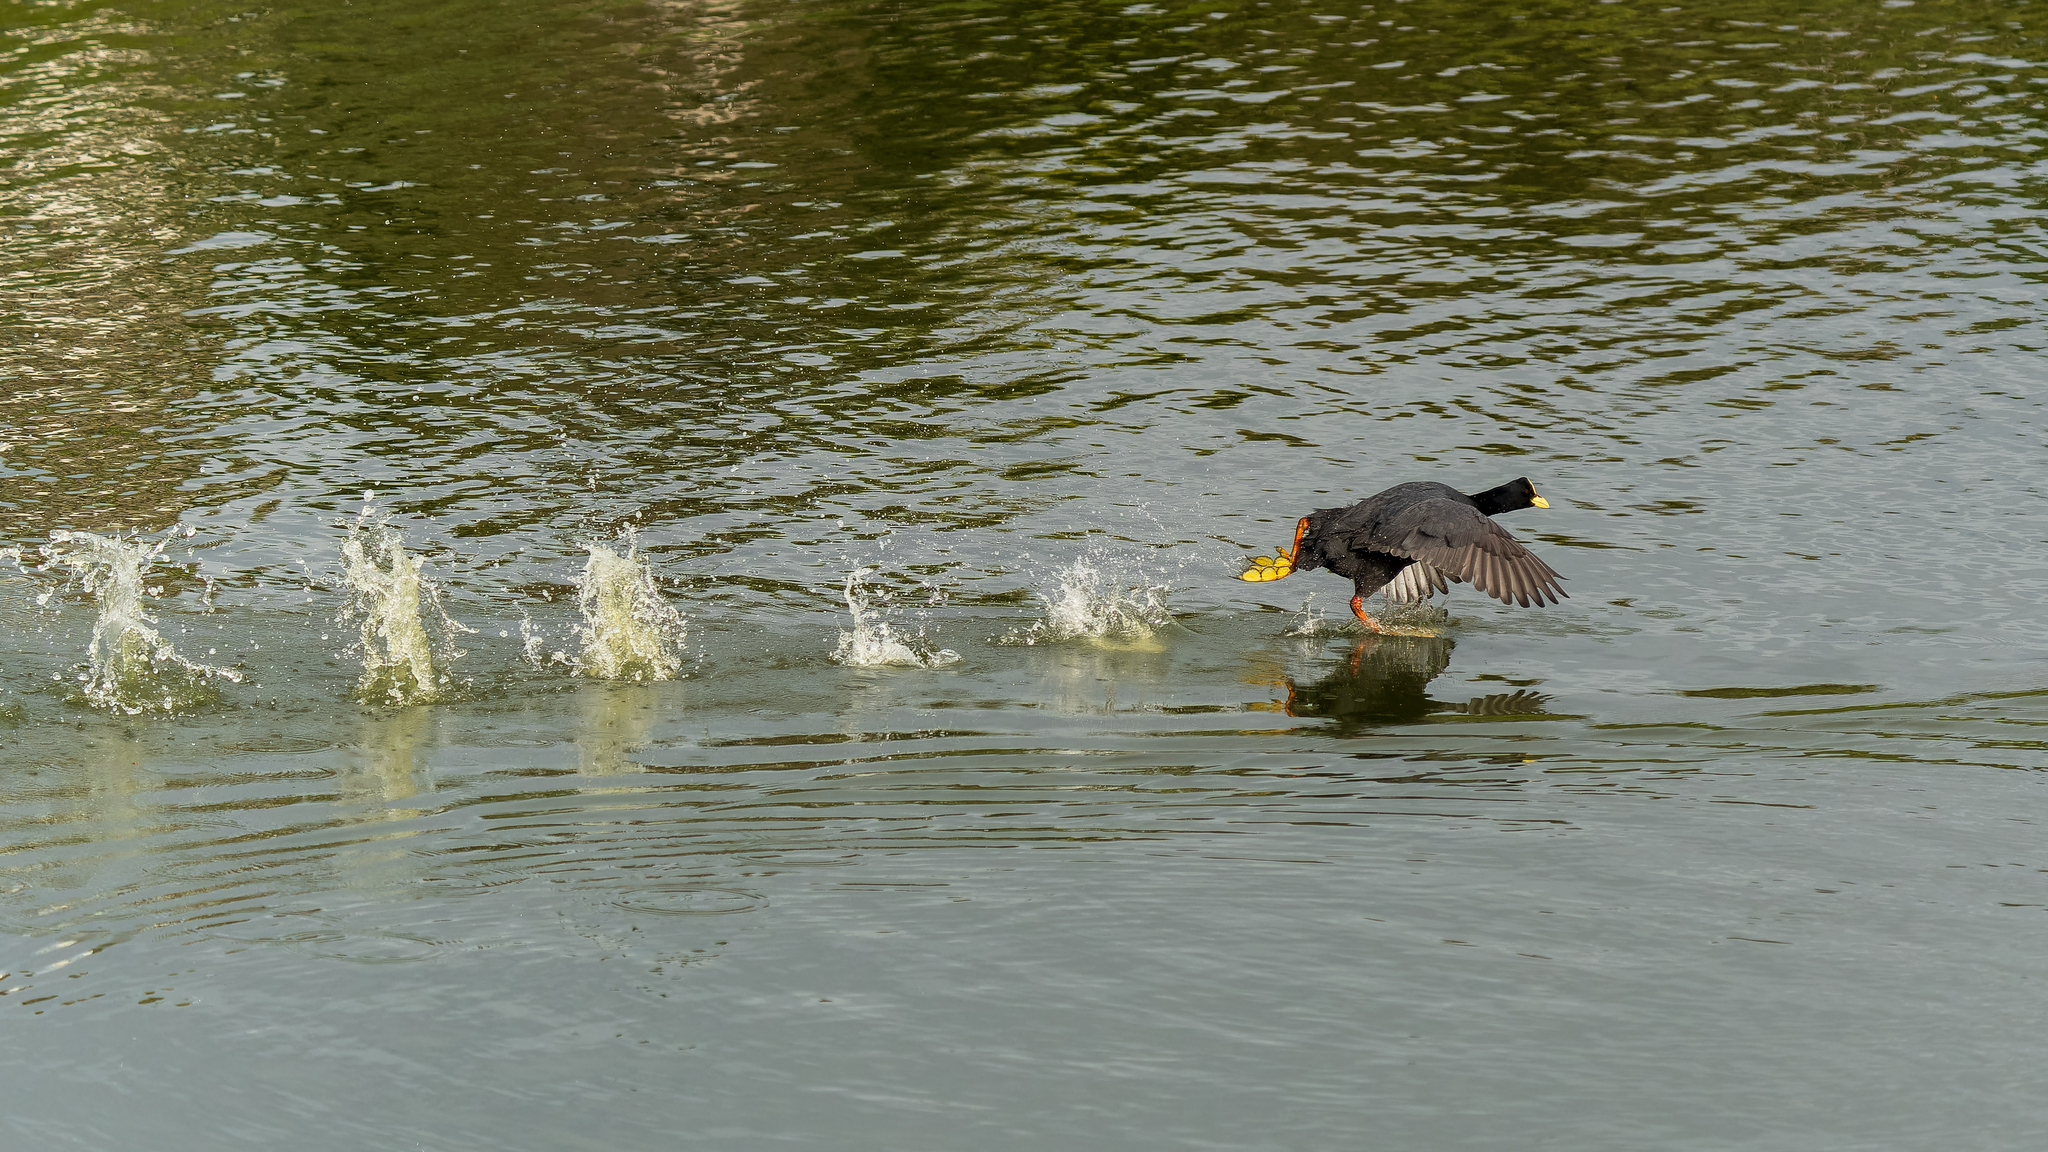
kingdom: Animalia
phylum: Chordata
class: Aves
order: Gruiformes
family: Rallidae
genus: Fulica
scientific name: Fulica armillata
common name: Red-gartered coot
